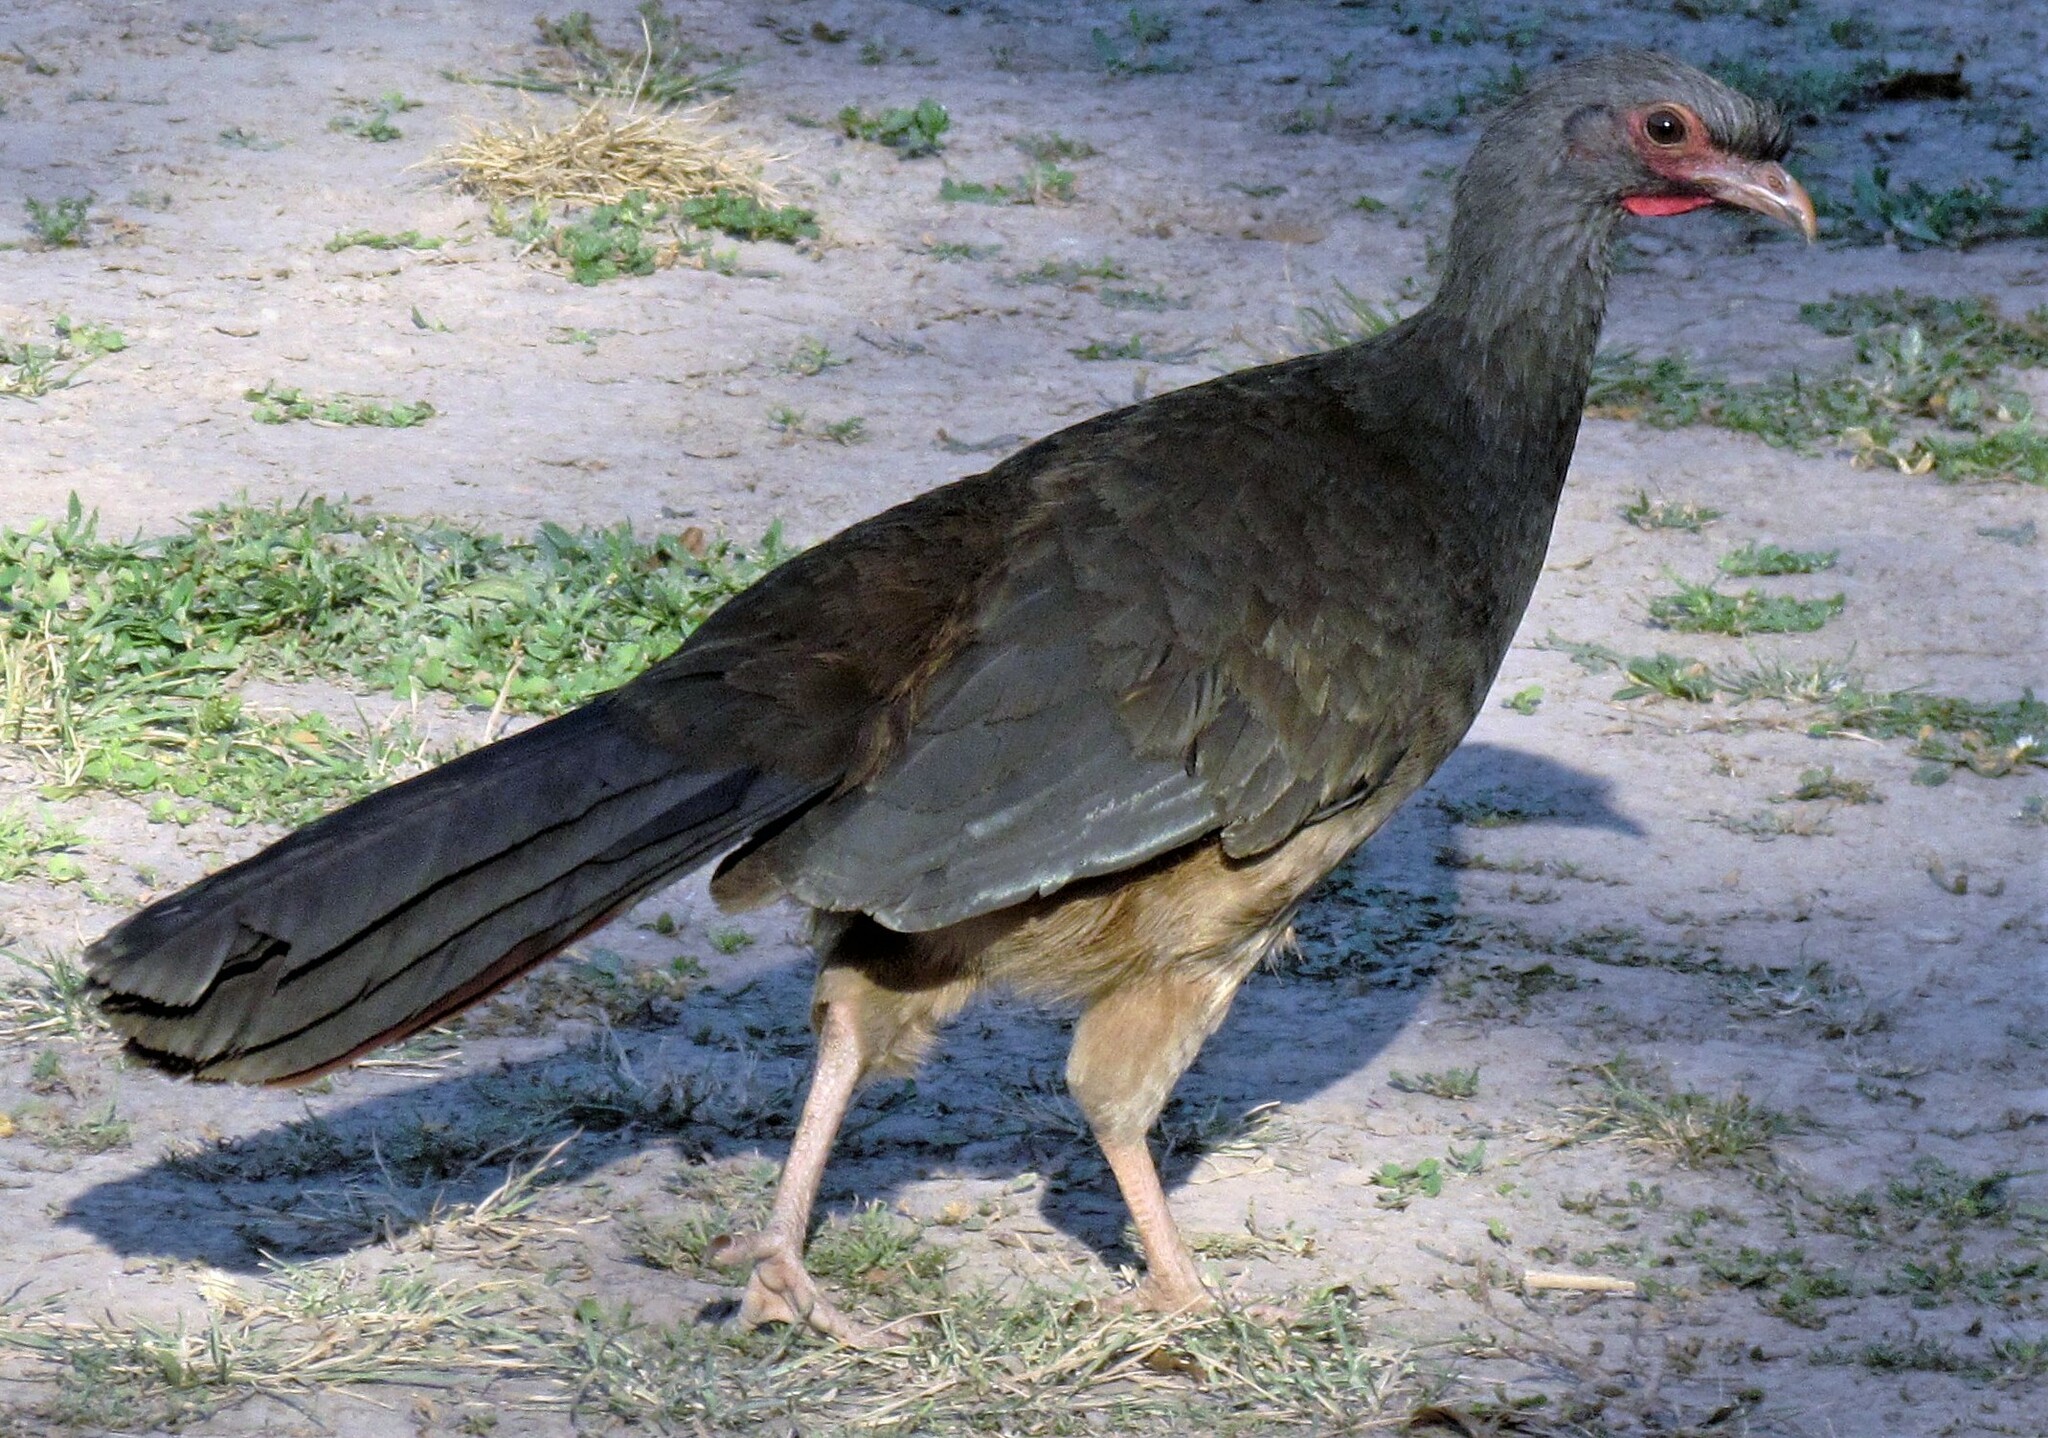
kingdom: Animalia
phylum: Chordata
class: Aves
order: Galliformes
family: Cracidae
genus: Ortalis
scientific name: Ortalis canicollis
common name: Chaco chachalaca
